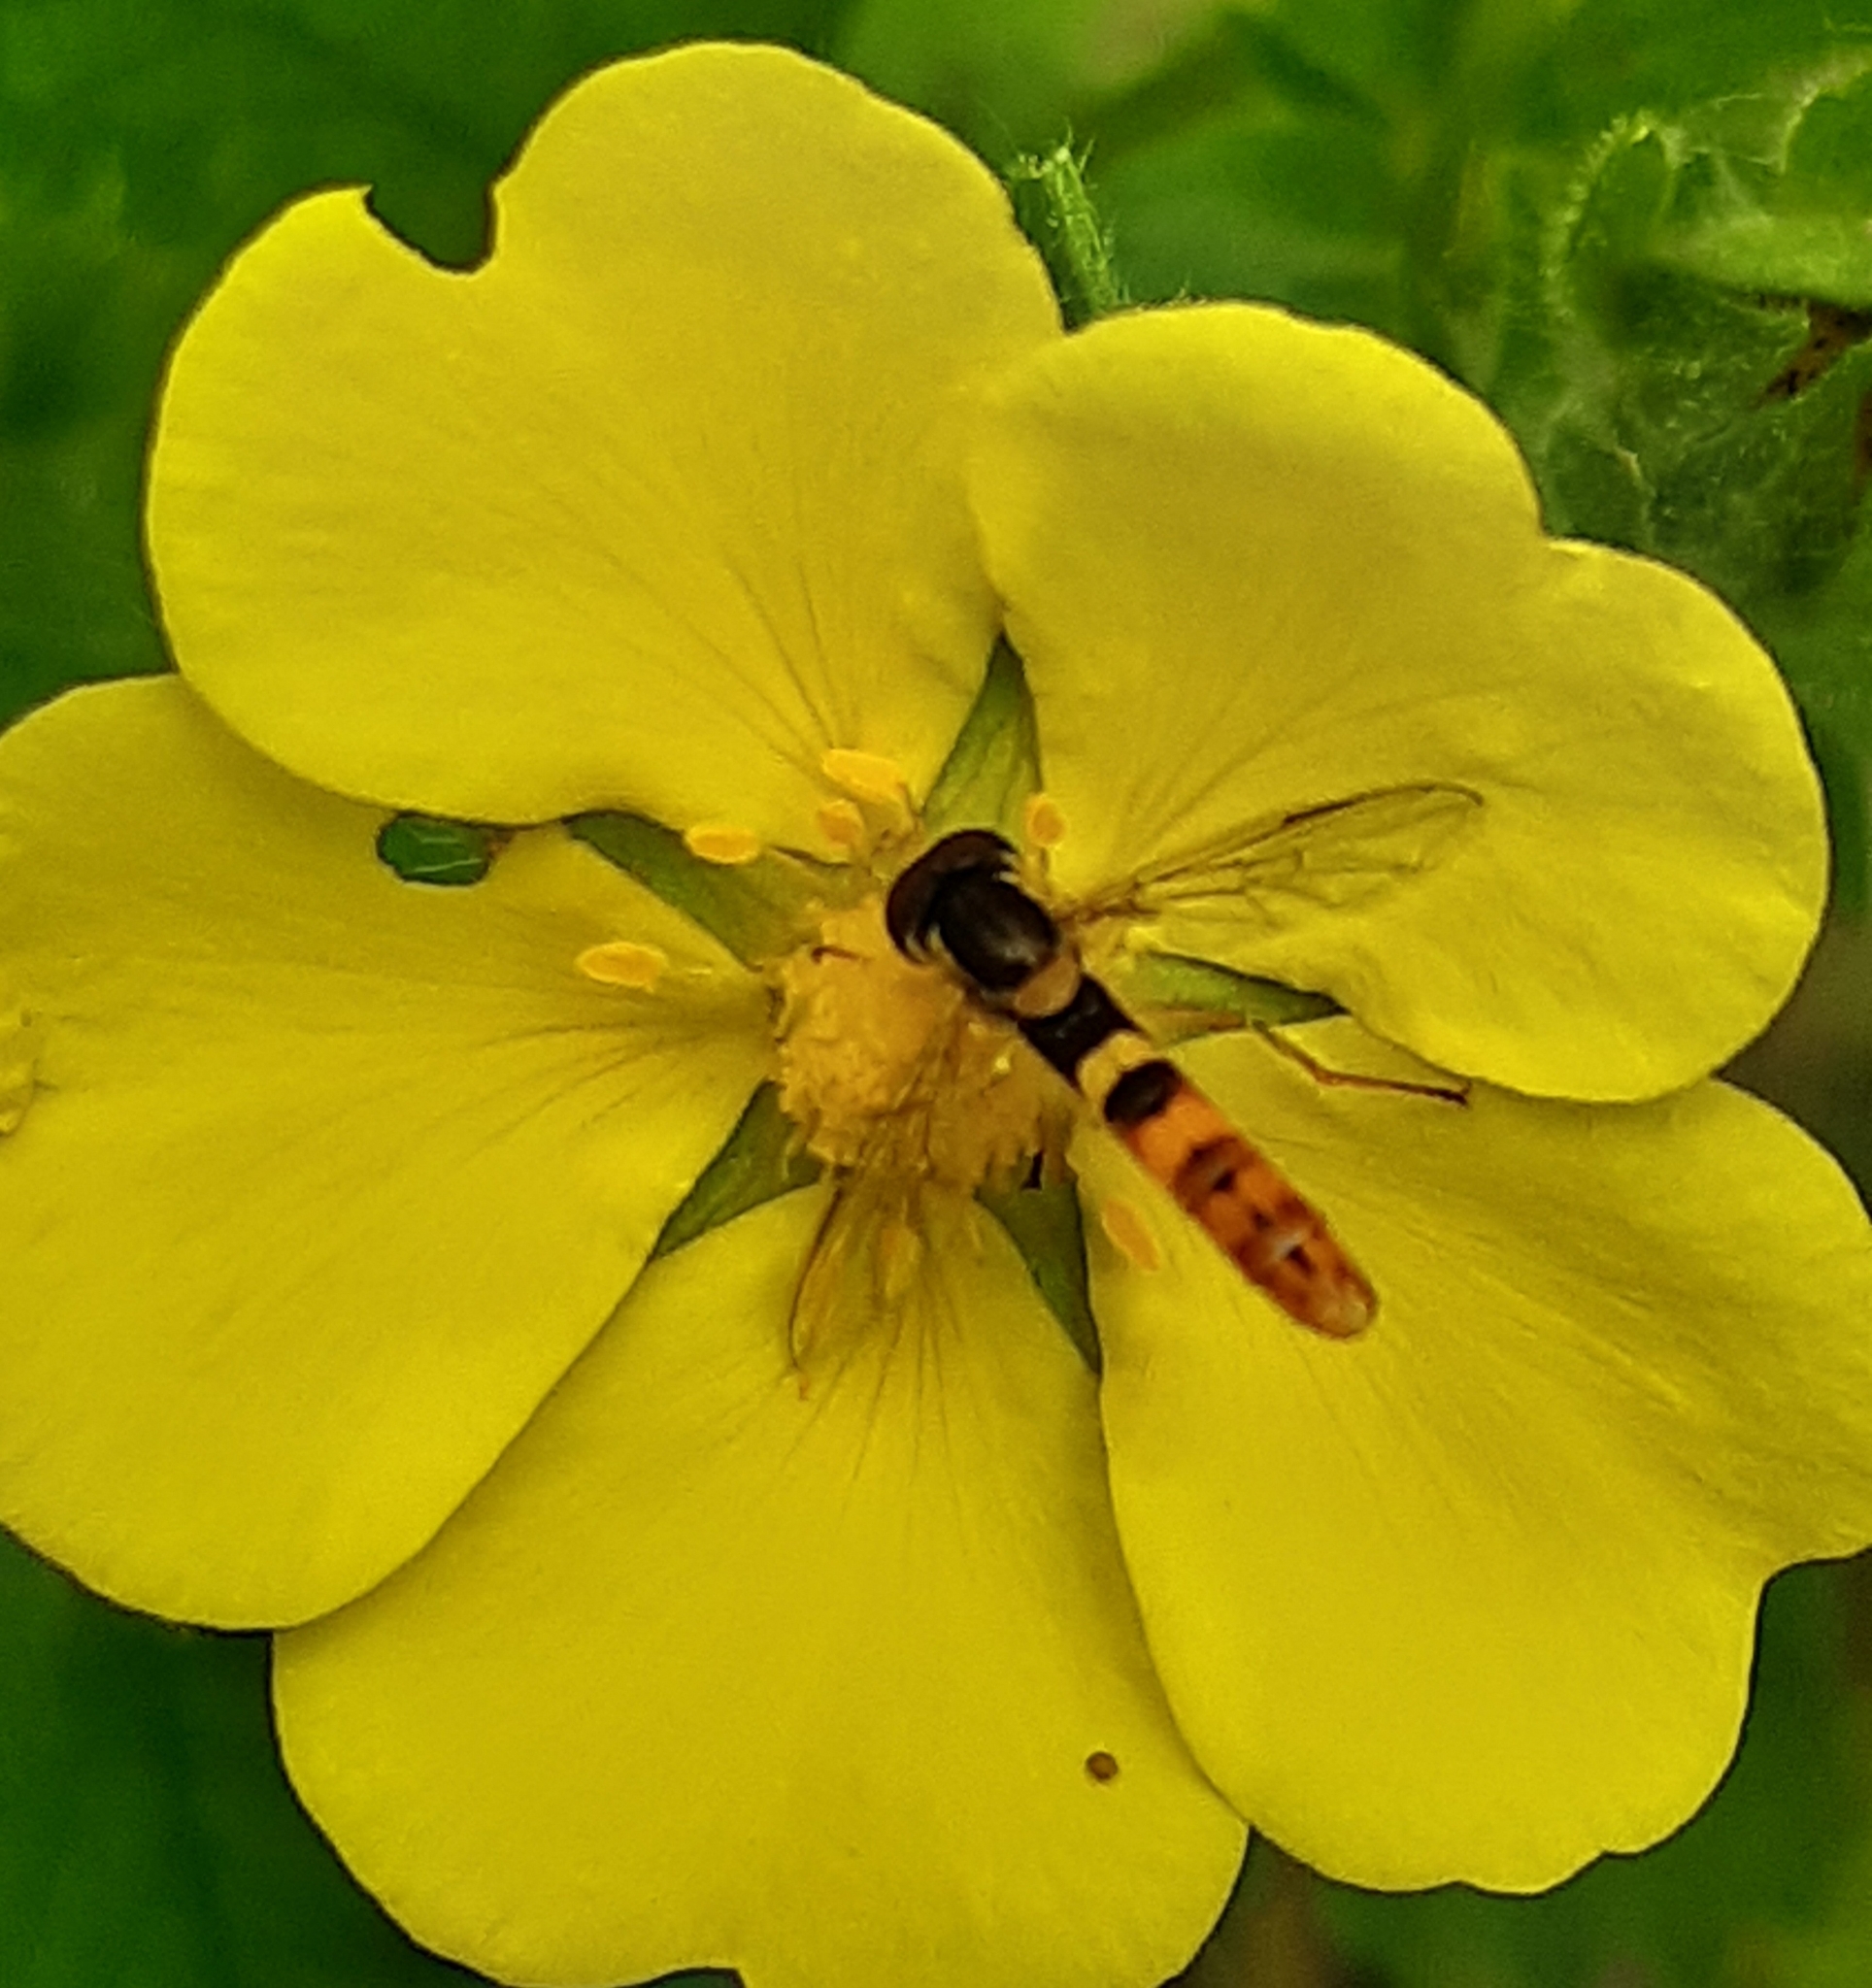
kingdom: Animalia
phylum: Arthropoda
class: Insecta
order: Diptera
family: Syrphidae
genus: Sphaerophoria
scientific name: Sphaerophoria scripta
